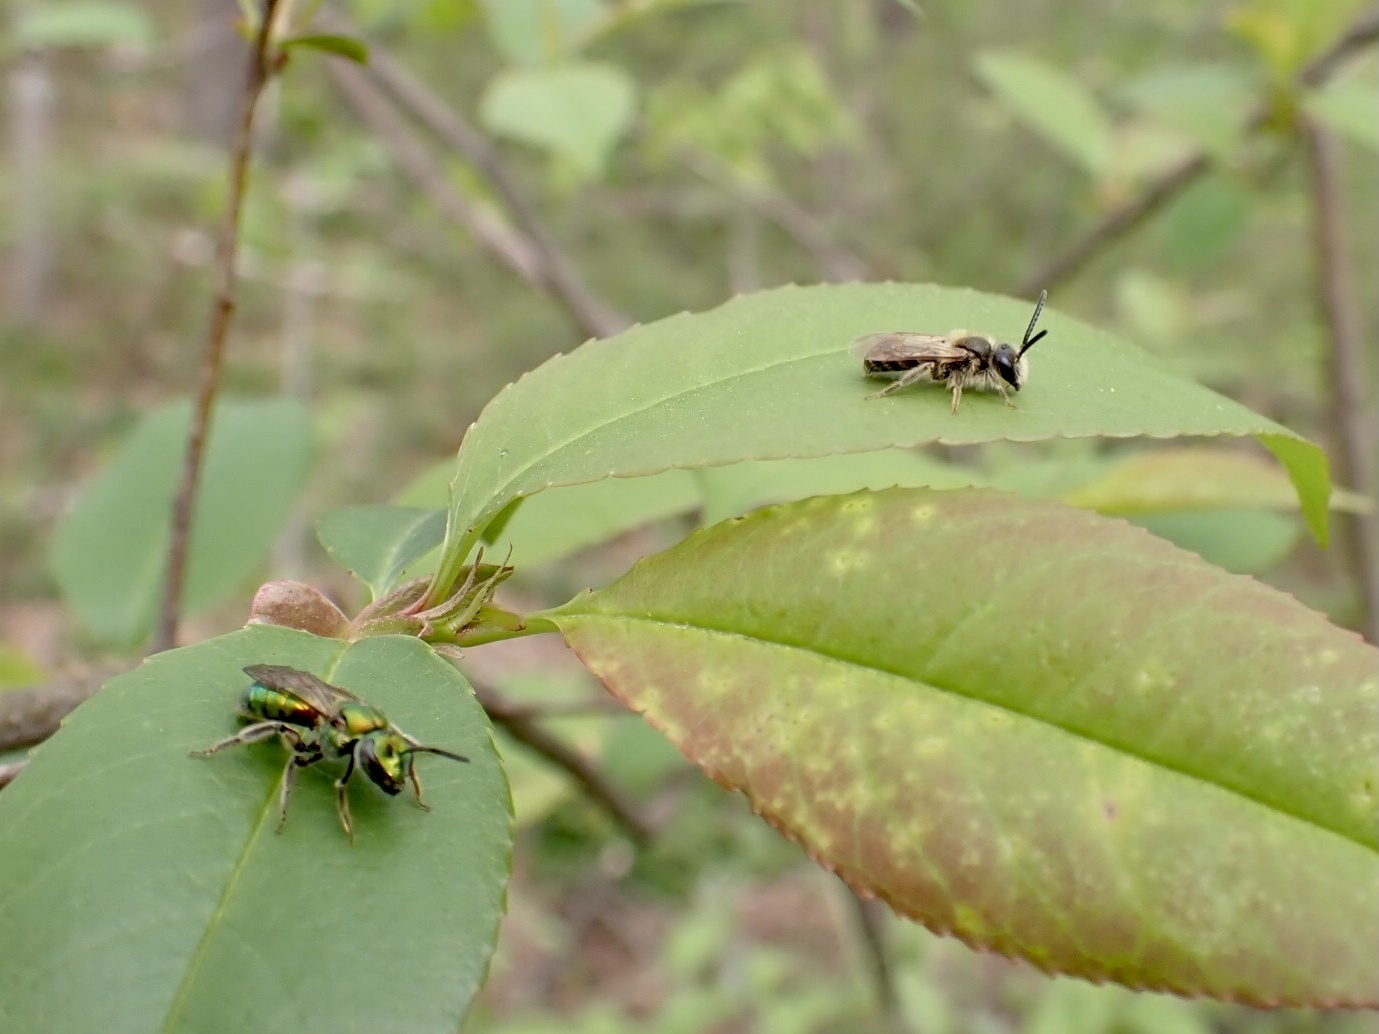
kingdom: Animalia
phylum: Arthropoda
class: Insecta
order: Hymenoptera
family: Andrenidae
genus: Andrena
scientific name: Andrena
